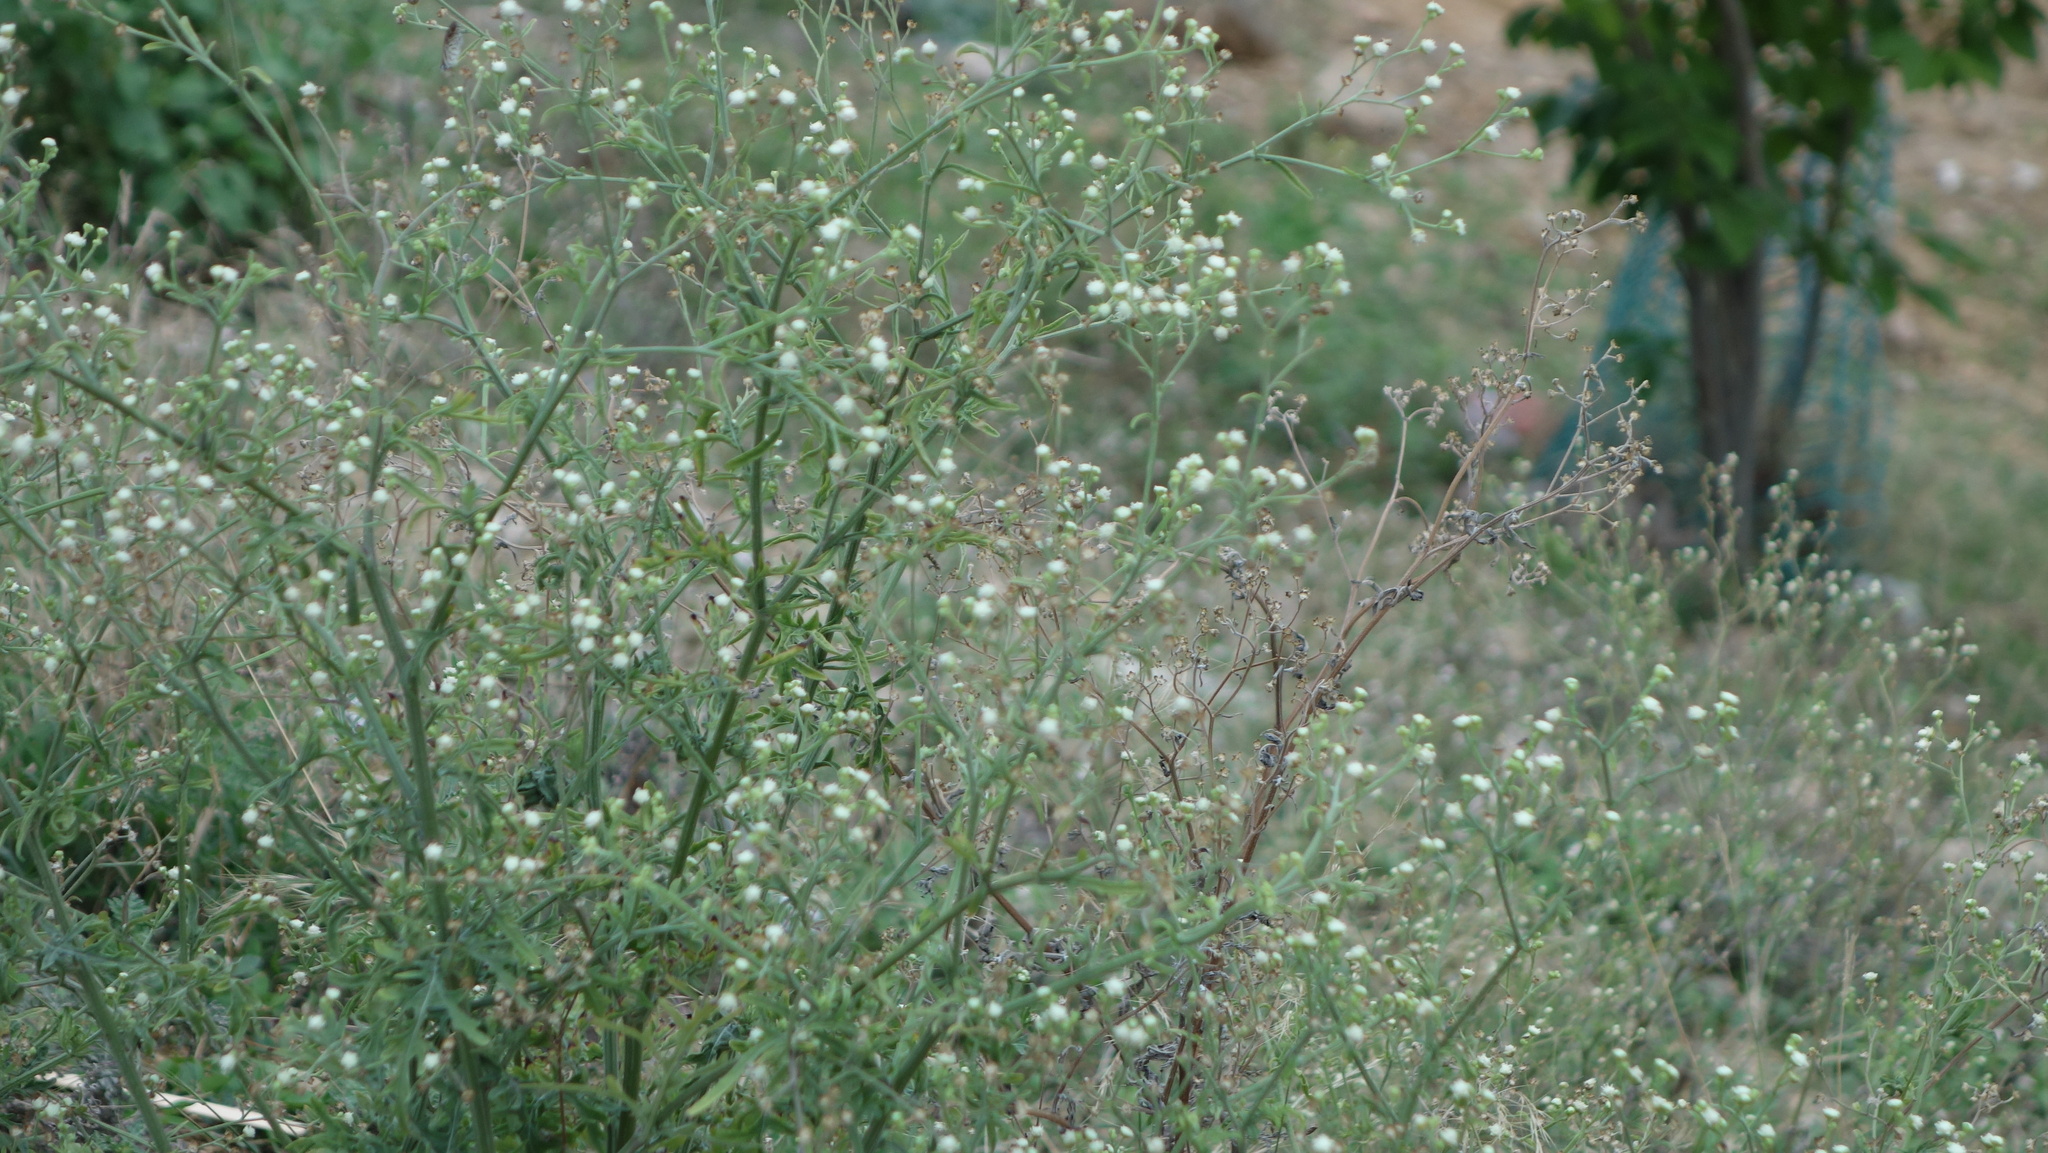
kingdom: Plantae
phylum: Tracheophyta
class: Magnoliopsida
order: Asterales
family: Asteraceae
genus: Parthenium
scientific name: Parthenium hysterophorus
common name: Santa maria feverfew
